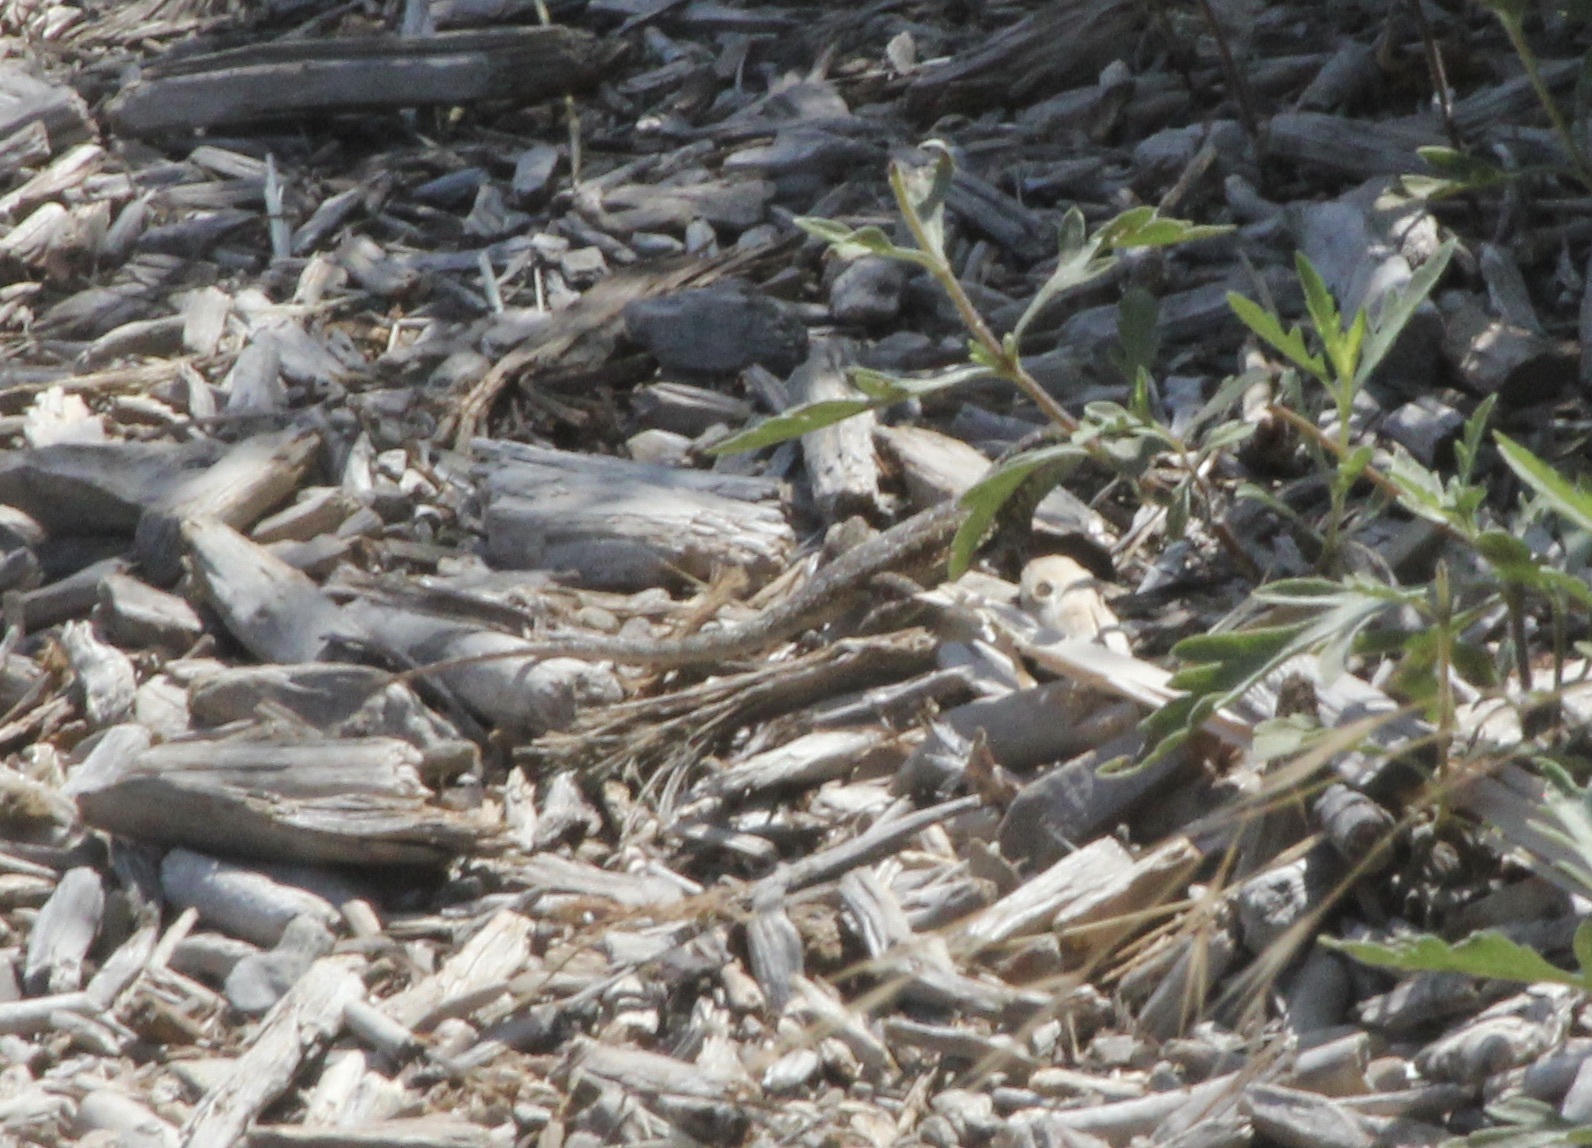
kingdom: Animalia
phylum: Chordata
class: Squamata
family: Phrynosomatidae
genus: Uta
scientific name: Uta stansburiana
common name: Side-blotched lizard
